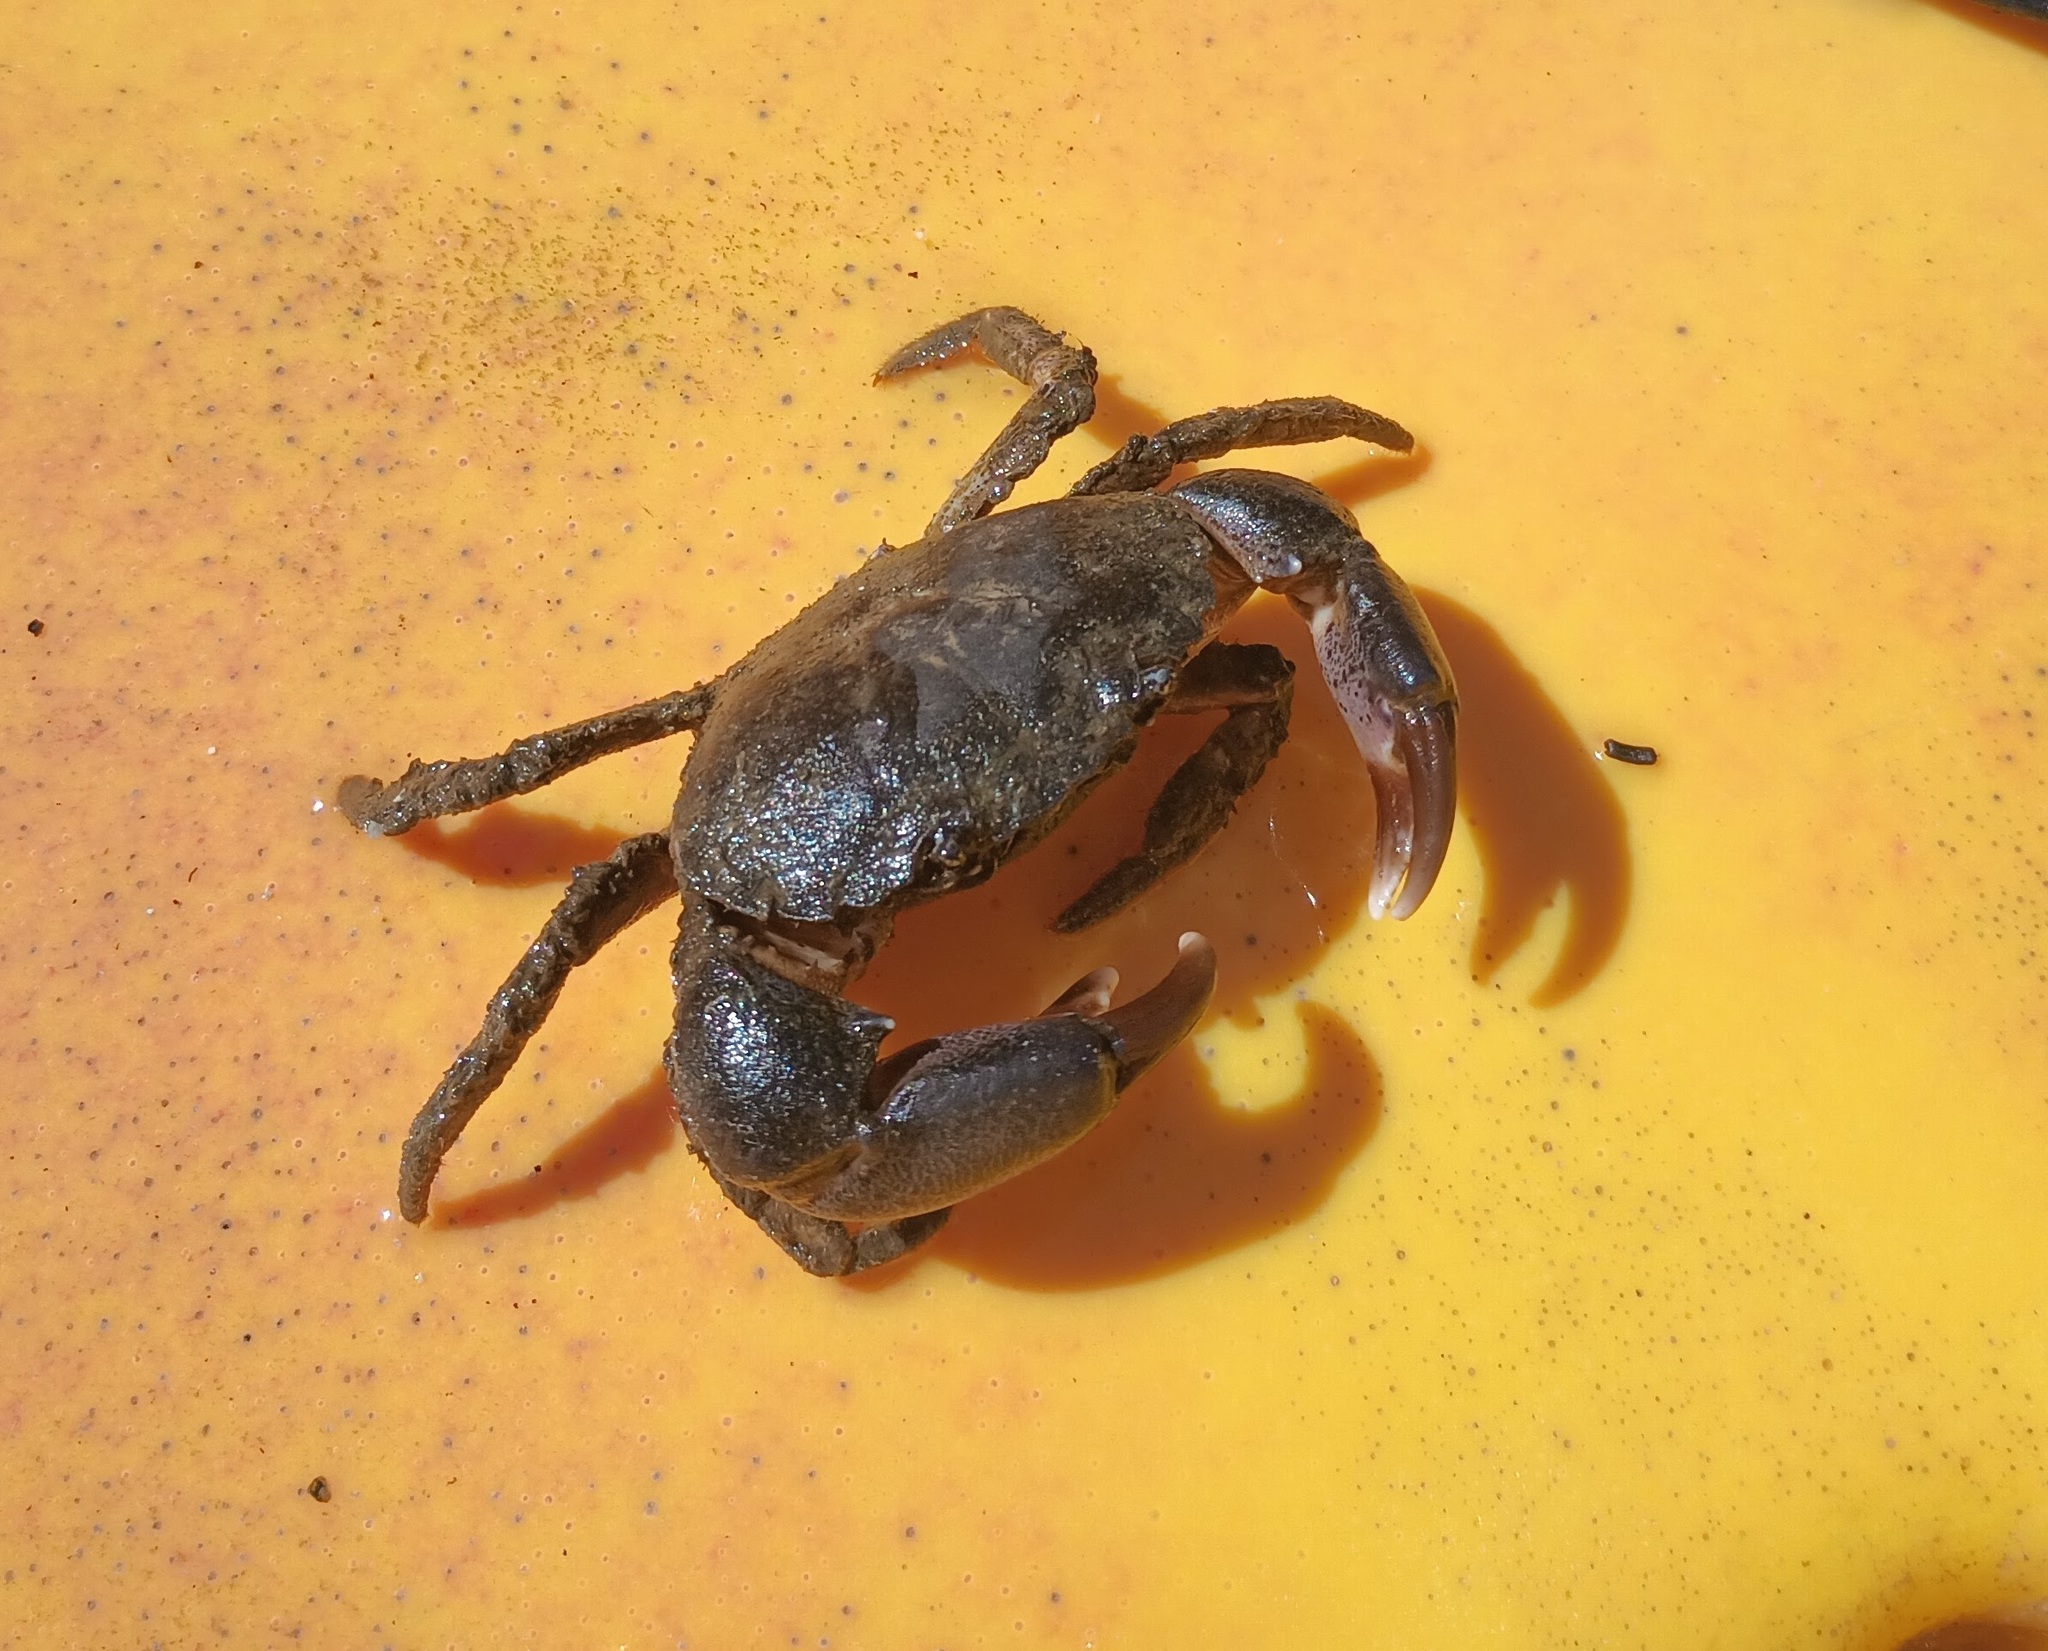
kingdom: Animalia
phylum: Arthropoda
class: Malacostraca
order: Decapoda
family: Panopeidae
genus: Rhithropanopeus
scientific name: Rhithropanopeus harrisii
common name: Dwarf crab
